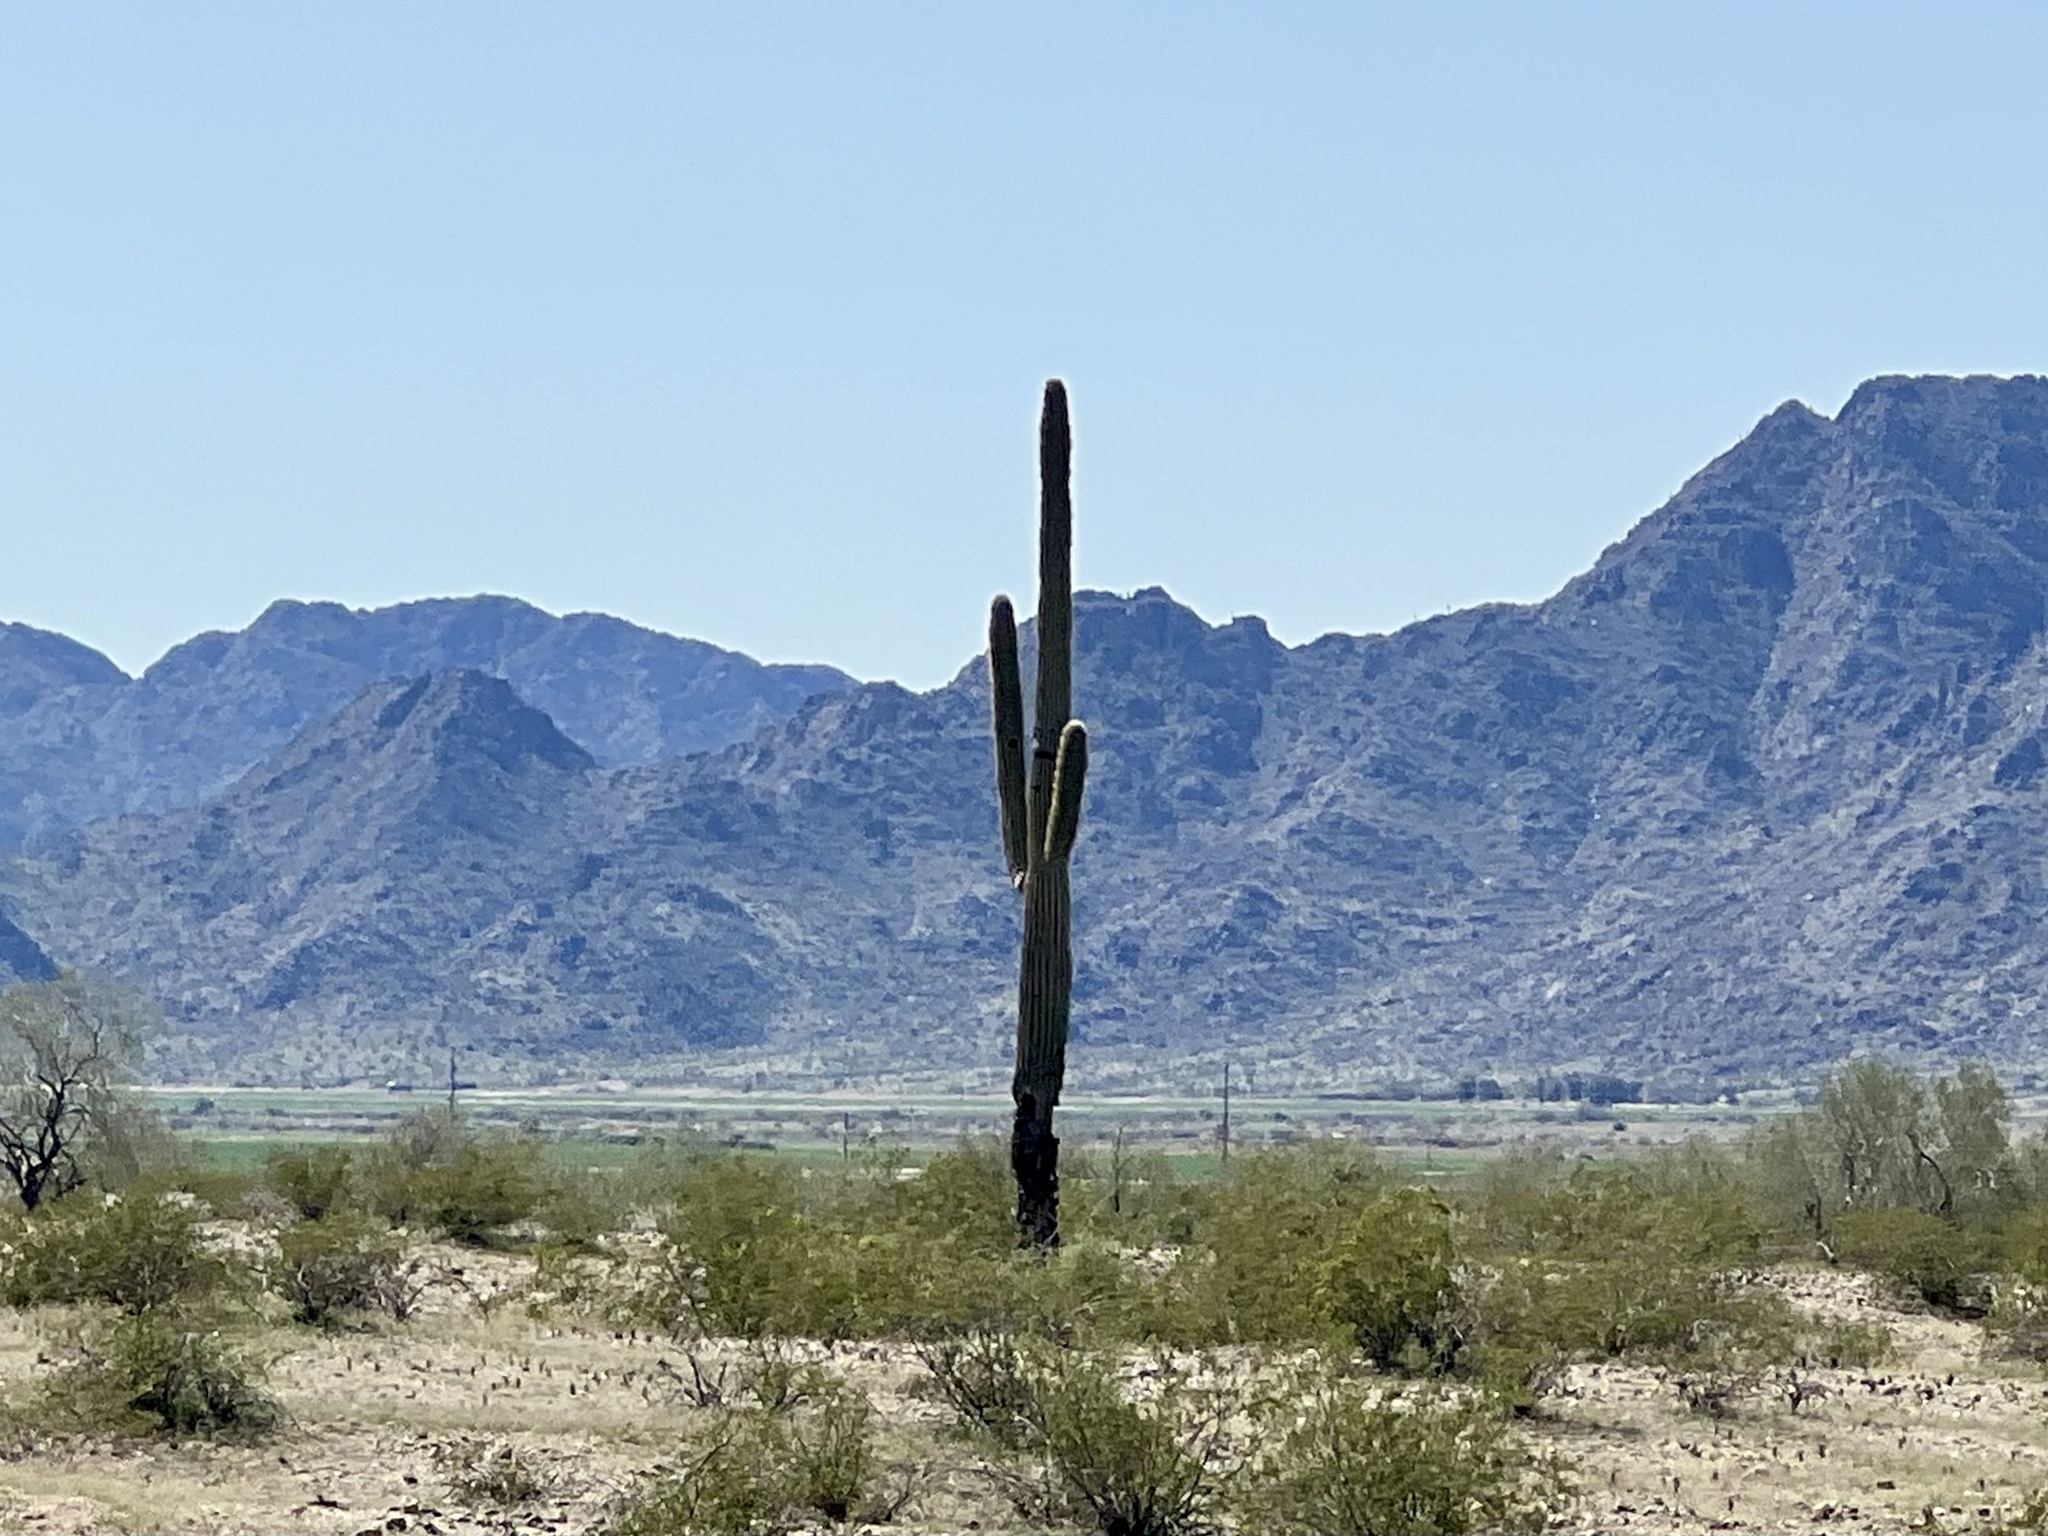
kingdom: Plantae
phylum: Tracheophyta
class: Magnoliopsida
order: Caryophyllales
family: Cactaceae
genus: Carnegiea
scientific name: Carnegiea gigantea
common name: Saguaro
